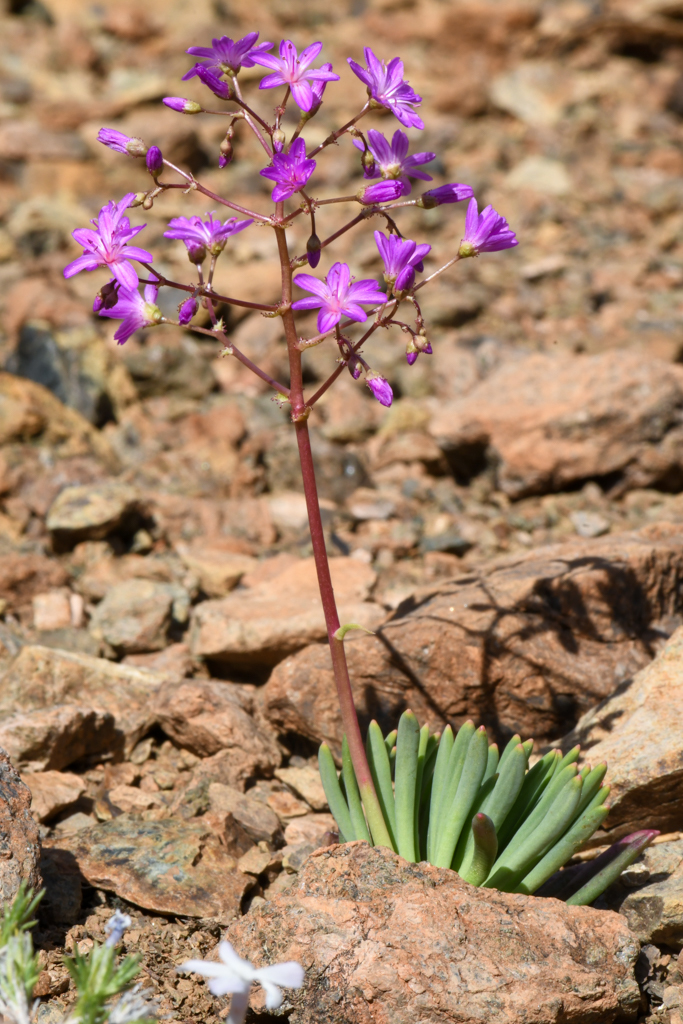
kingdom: Plantae
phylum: Tracheophyta
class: Magnoliopsida
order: Caryophyllales
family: Montiaceae
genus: Lewisia
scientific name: Lewisia leeana
